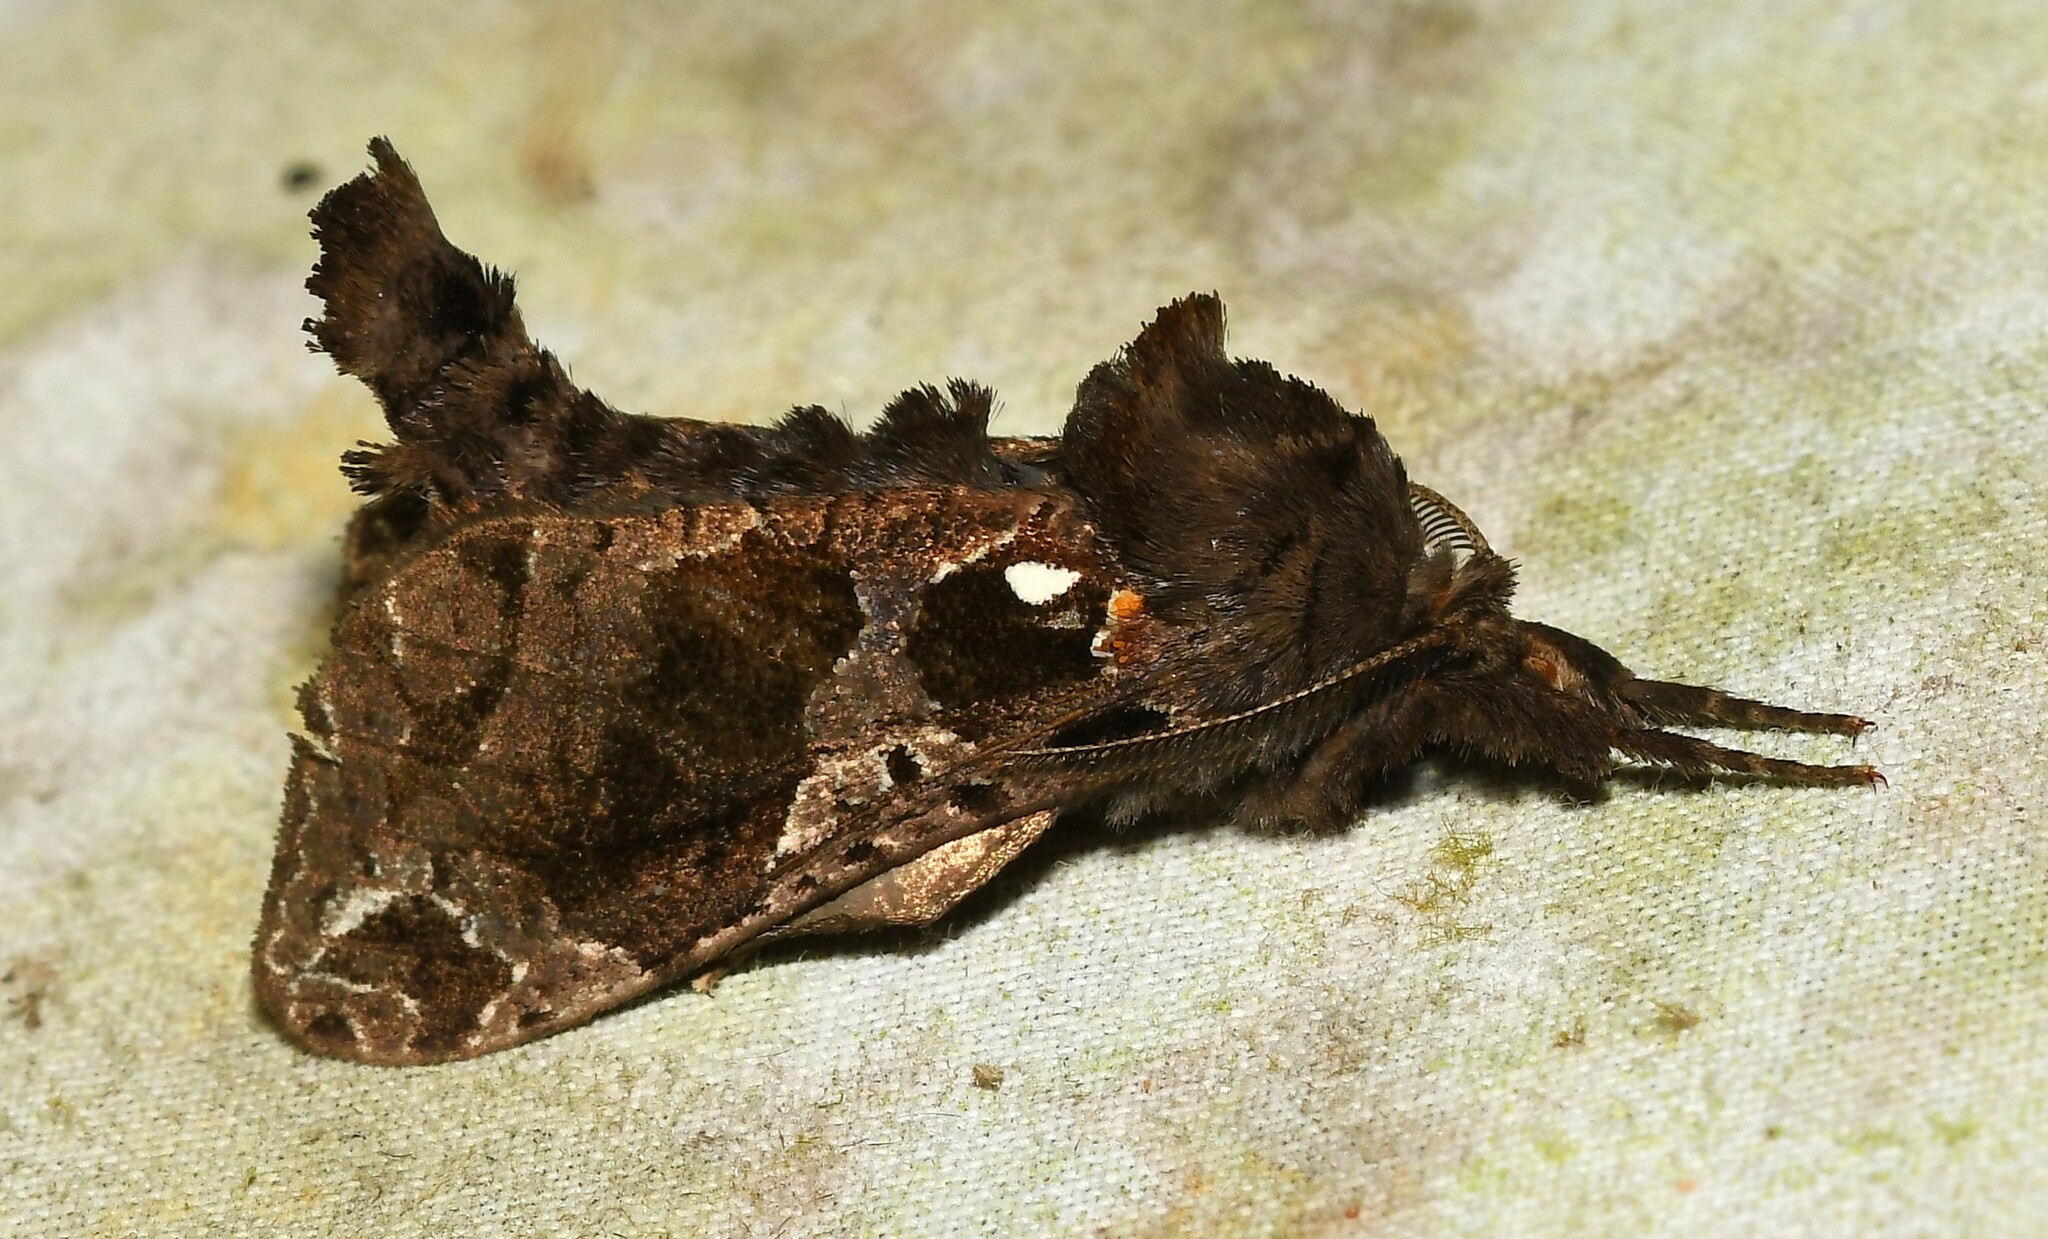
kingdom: Animalia
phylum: Arthropoda
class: Insecta
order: Lepidoptera
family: Cossidae
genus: Langsdorfia
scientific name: Langsdorfia
